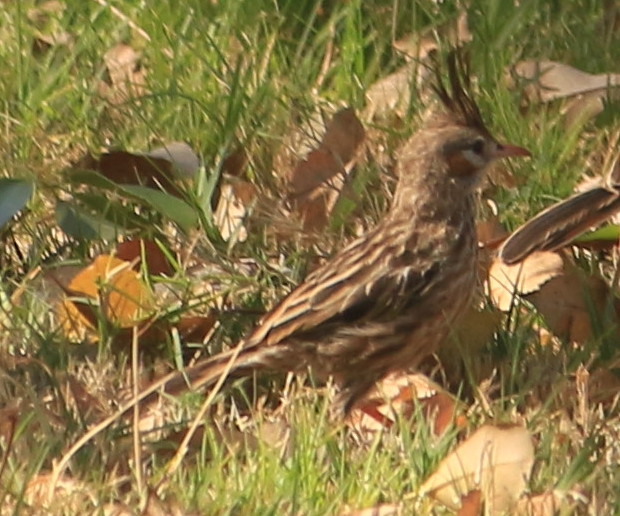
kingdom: Animalia
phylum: Chordata
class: Aves
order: Passeriformes
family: Furnariidae
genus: Coryphistera
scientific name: Coryphistera alaudina
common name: Lark-like brushrunner
